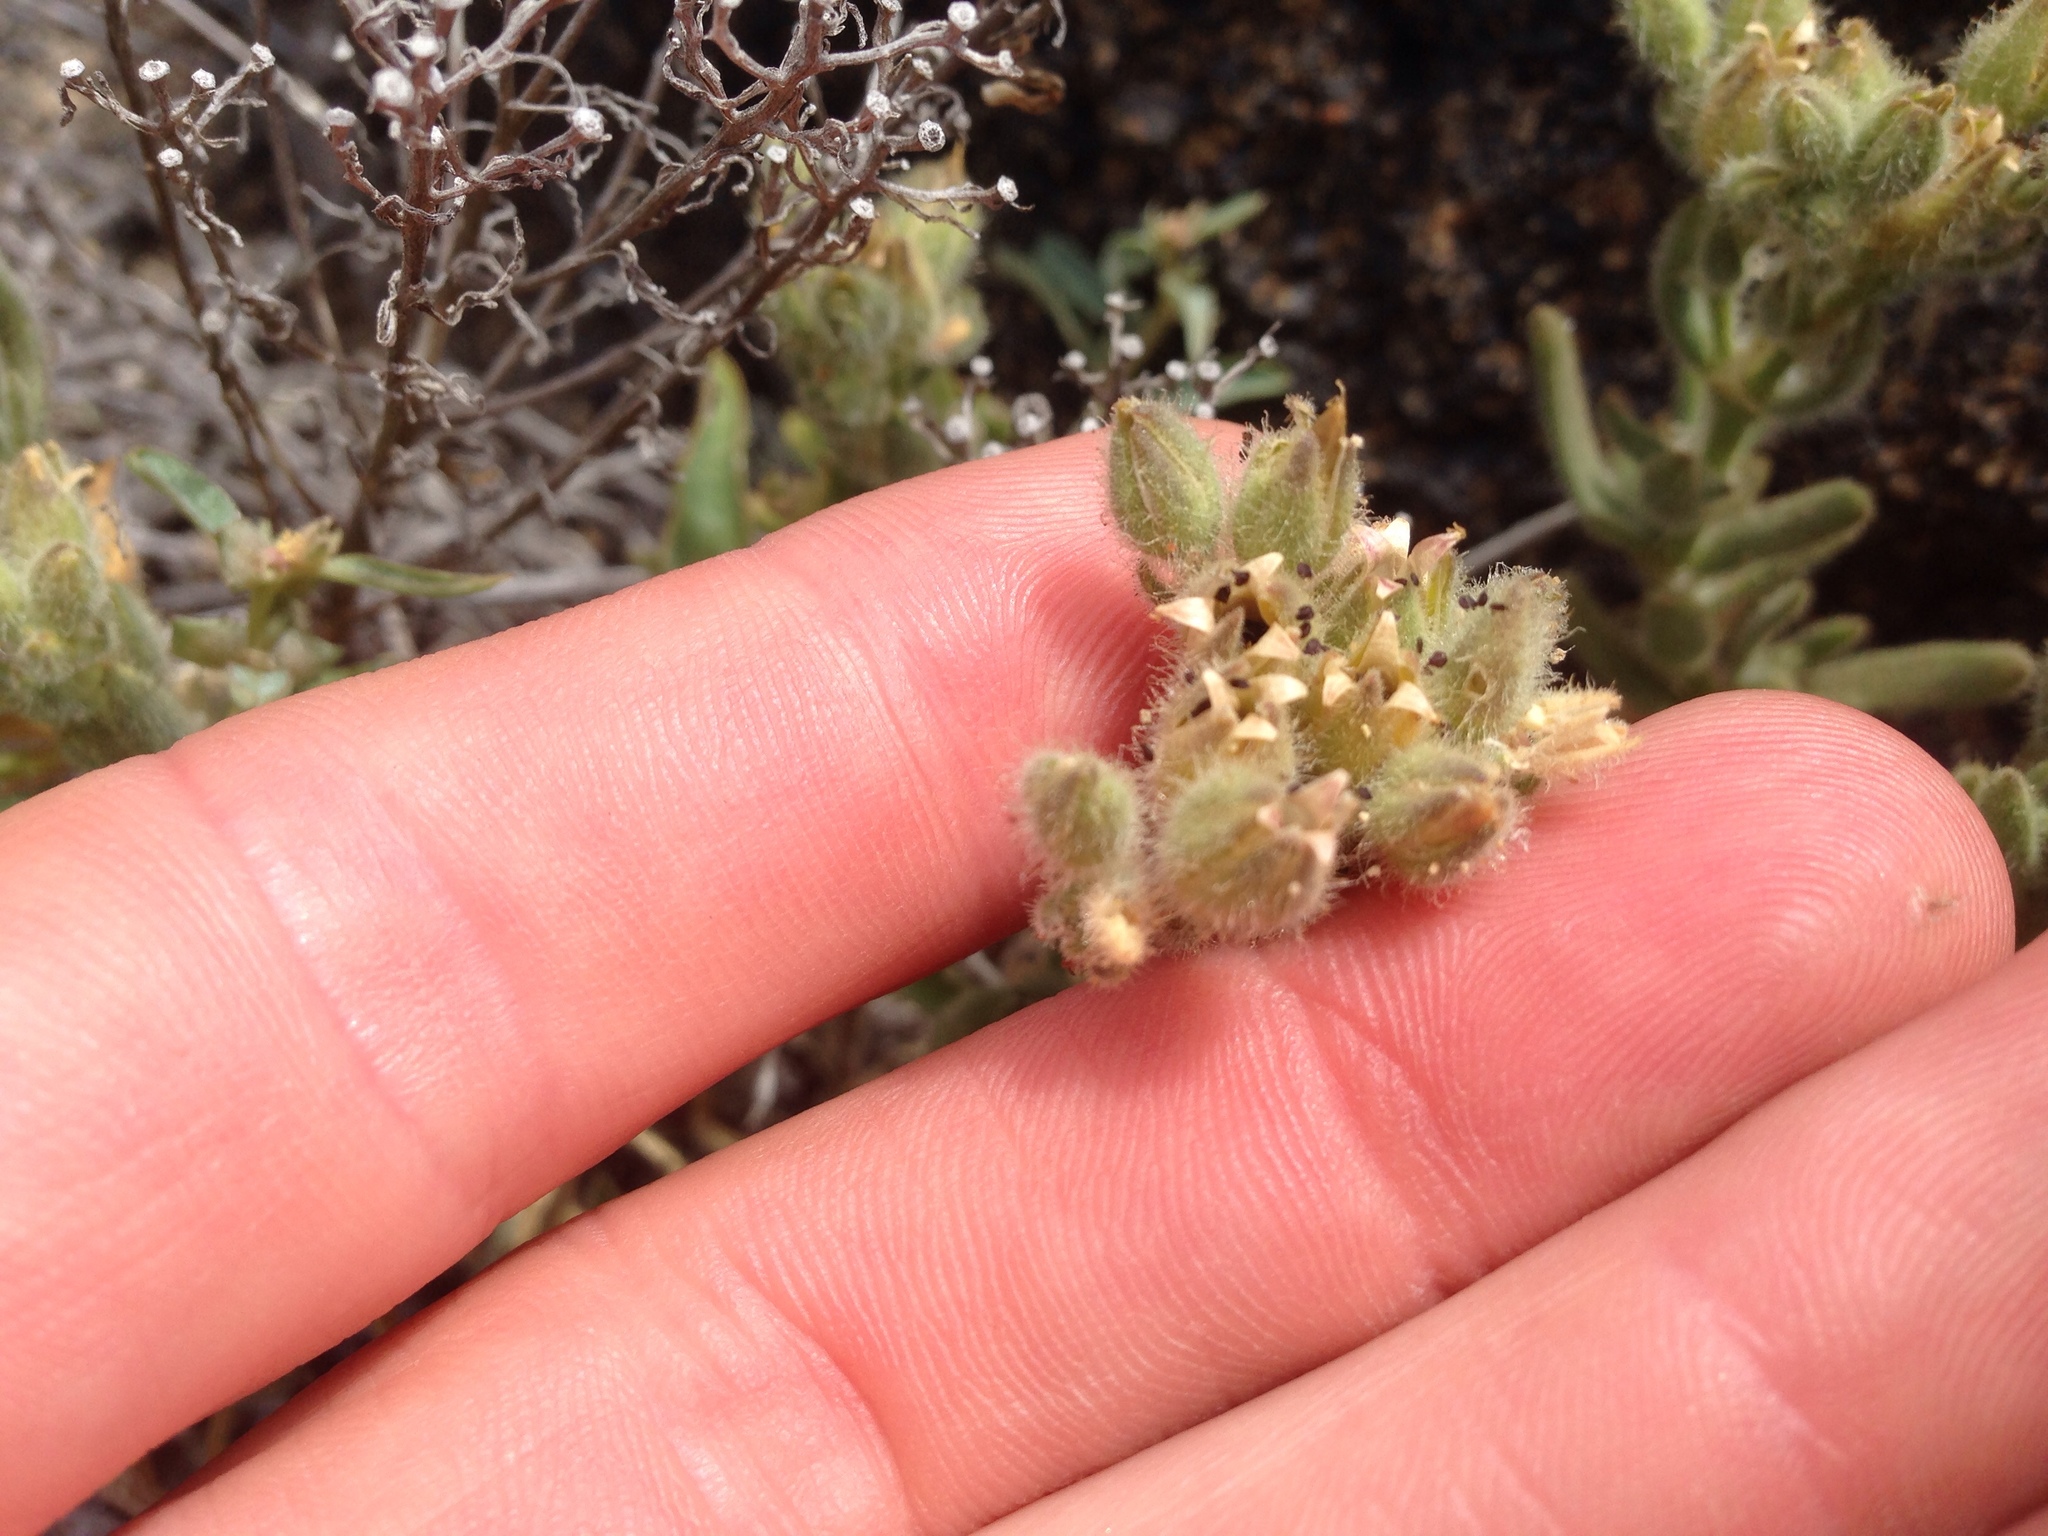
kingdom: Plantae
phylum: Tracheophyta
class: Magnoliopsida
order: Caryophyllales
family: Caryophyllaceae
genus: Spergularia
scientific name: Spergularia macrotheca
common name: Beach sand-spurrey
